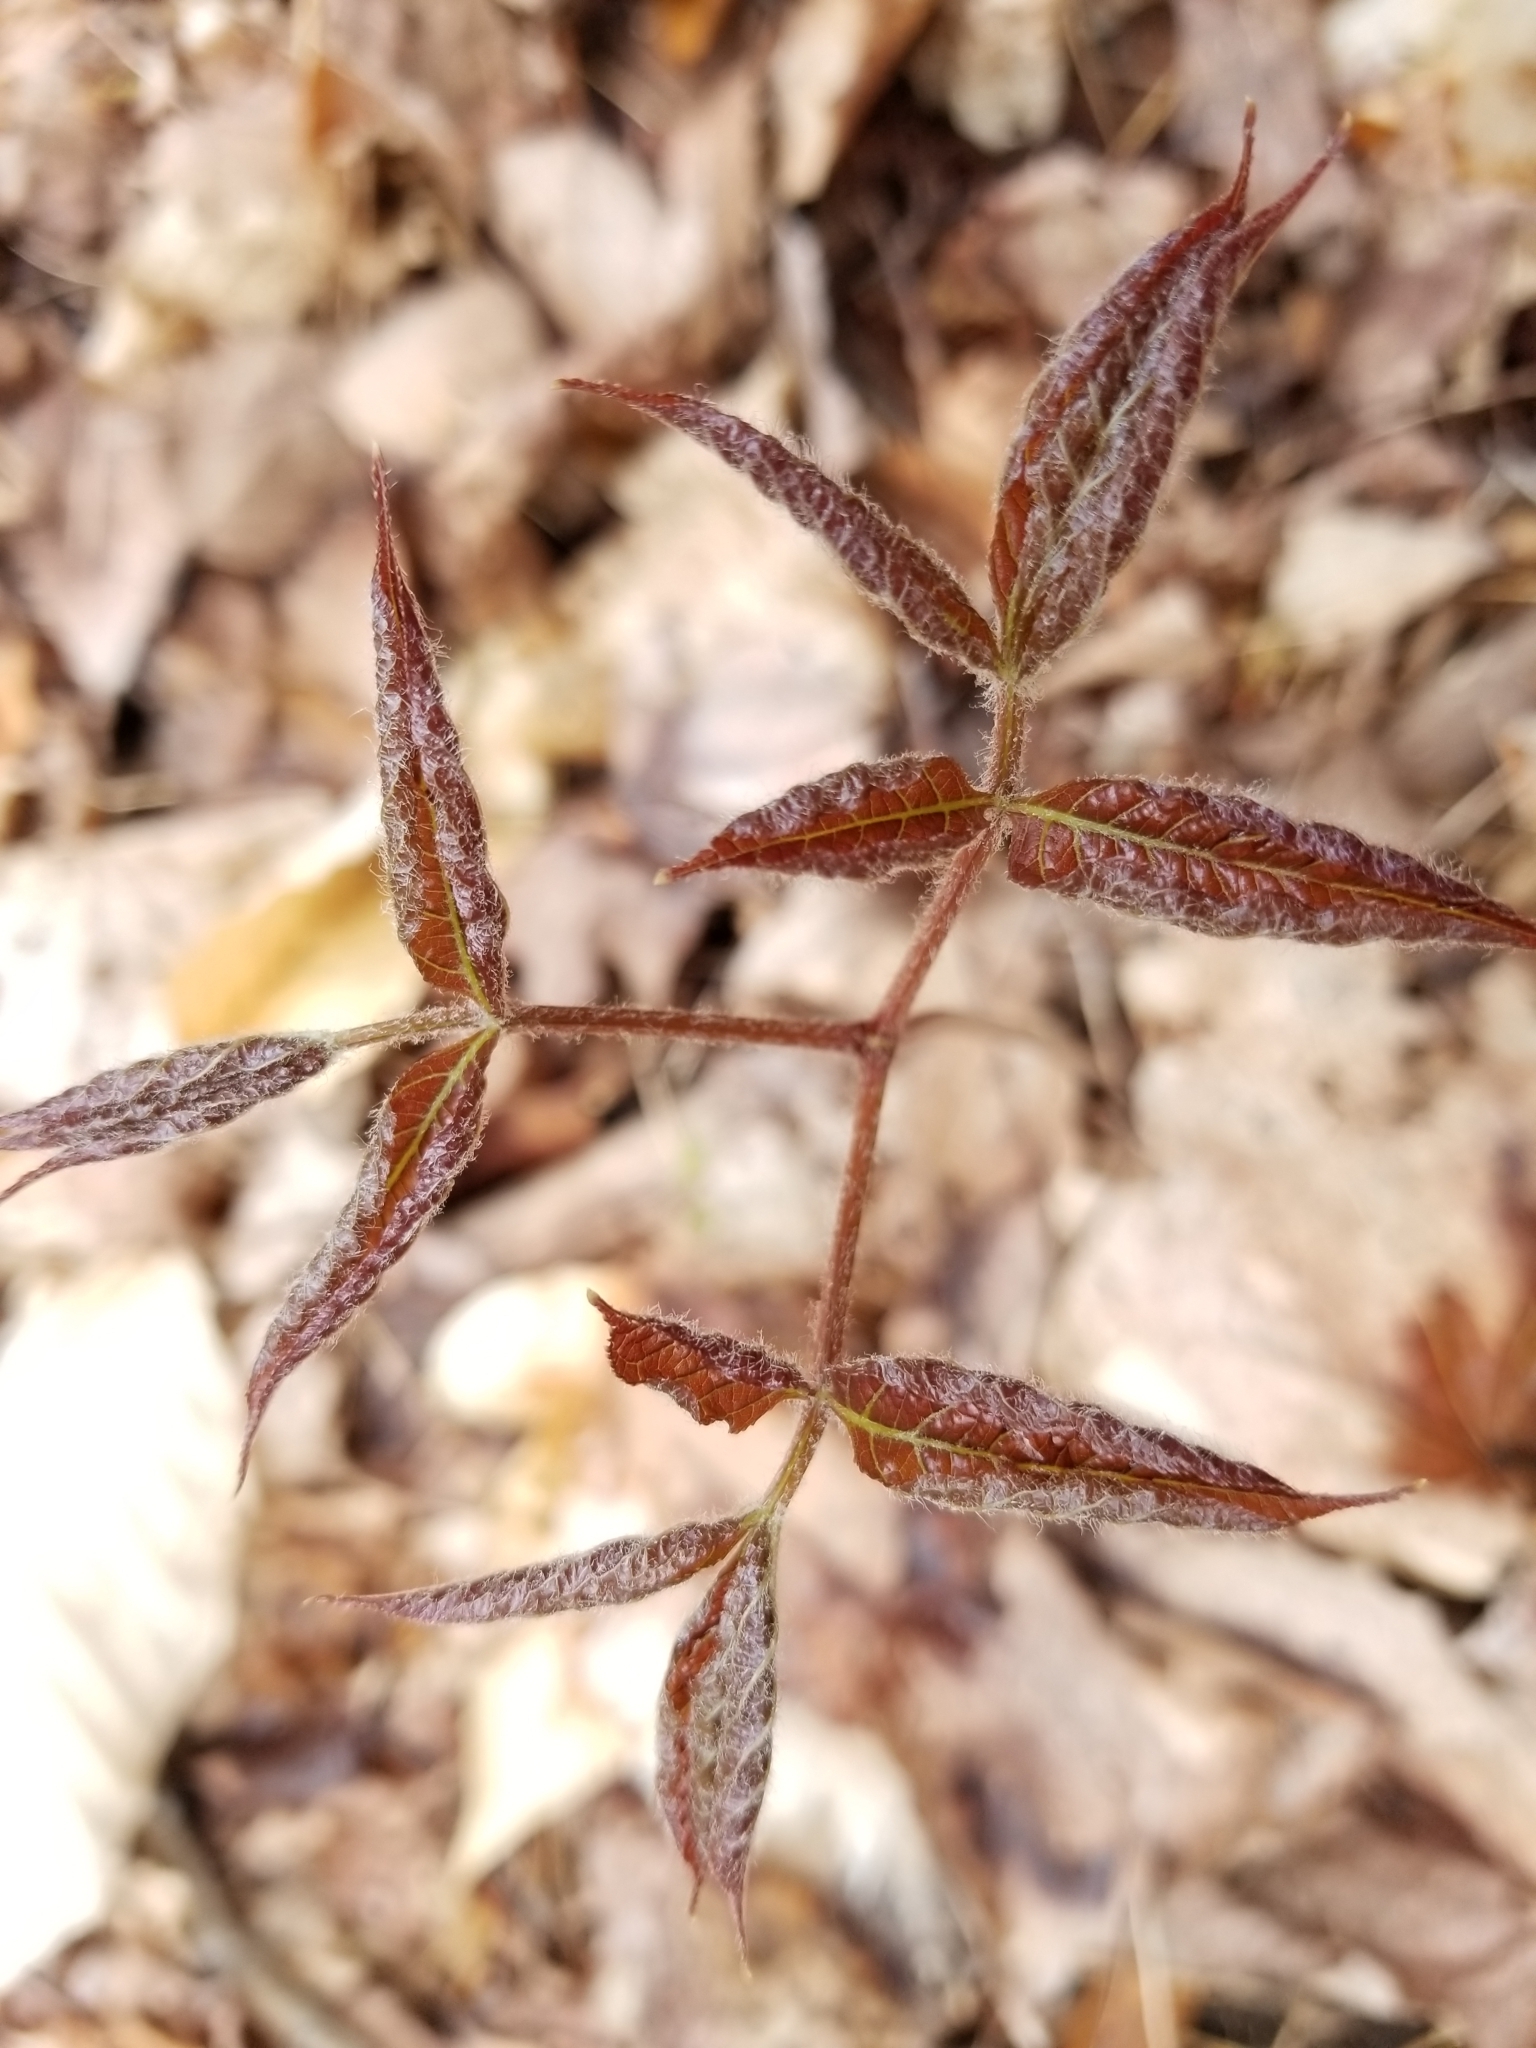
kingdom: Plantae
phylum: Tracheophyta
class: Magnoliopsida
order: Apiales
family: Araliaceae
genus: Aralia
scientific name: Aralia nudicaulis
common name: Wild sarsaparilla
